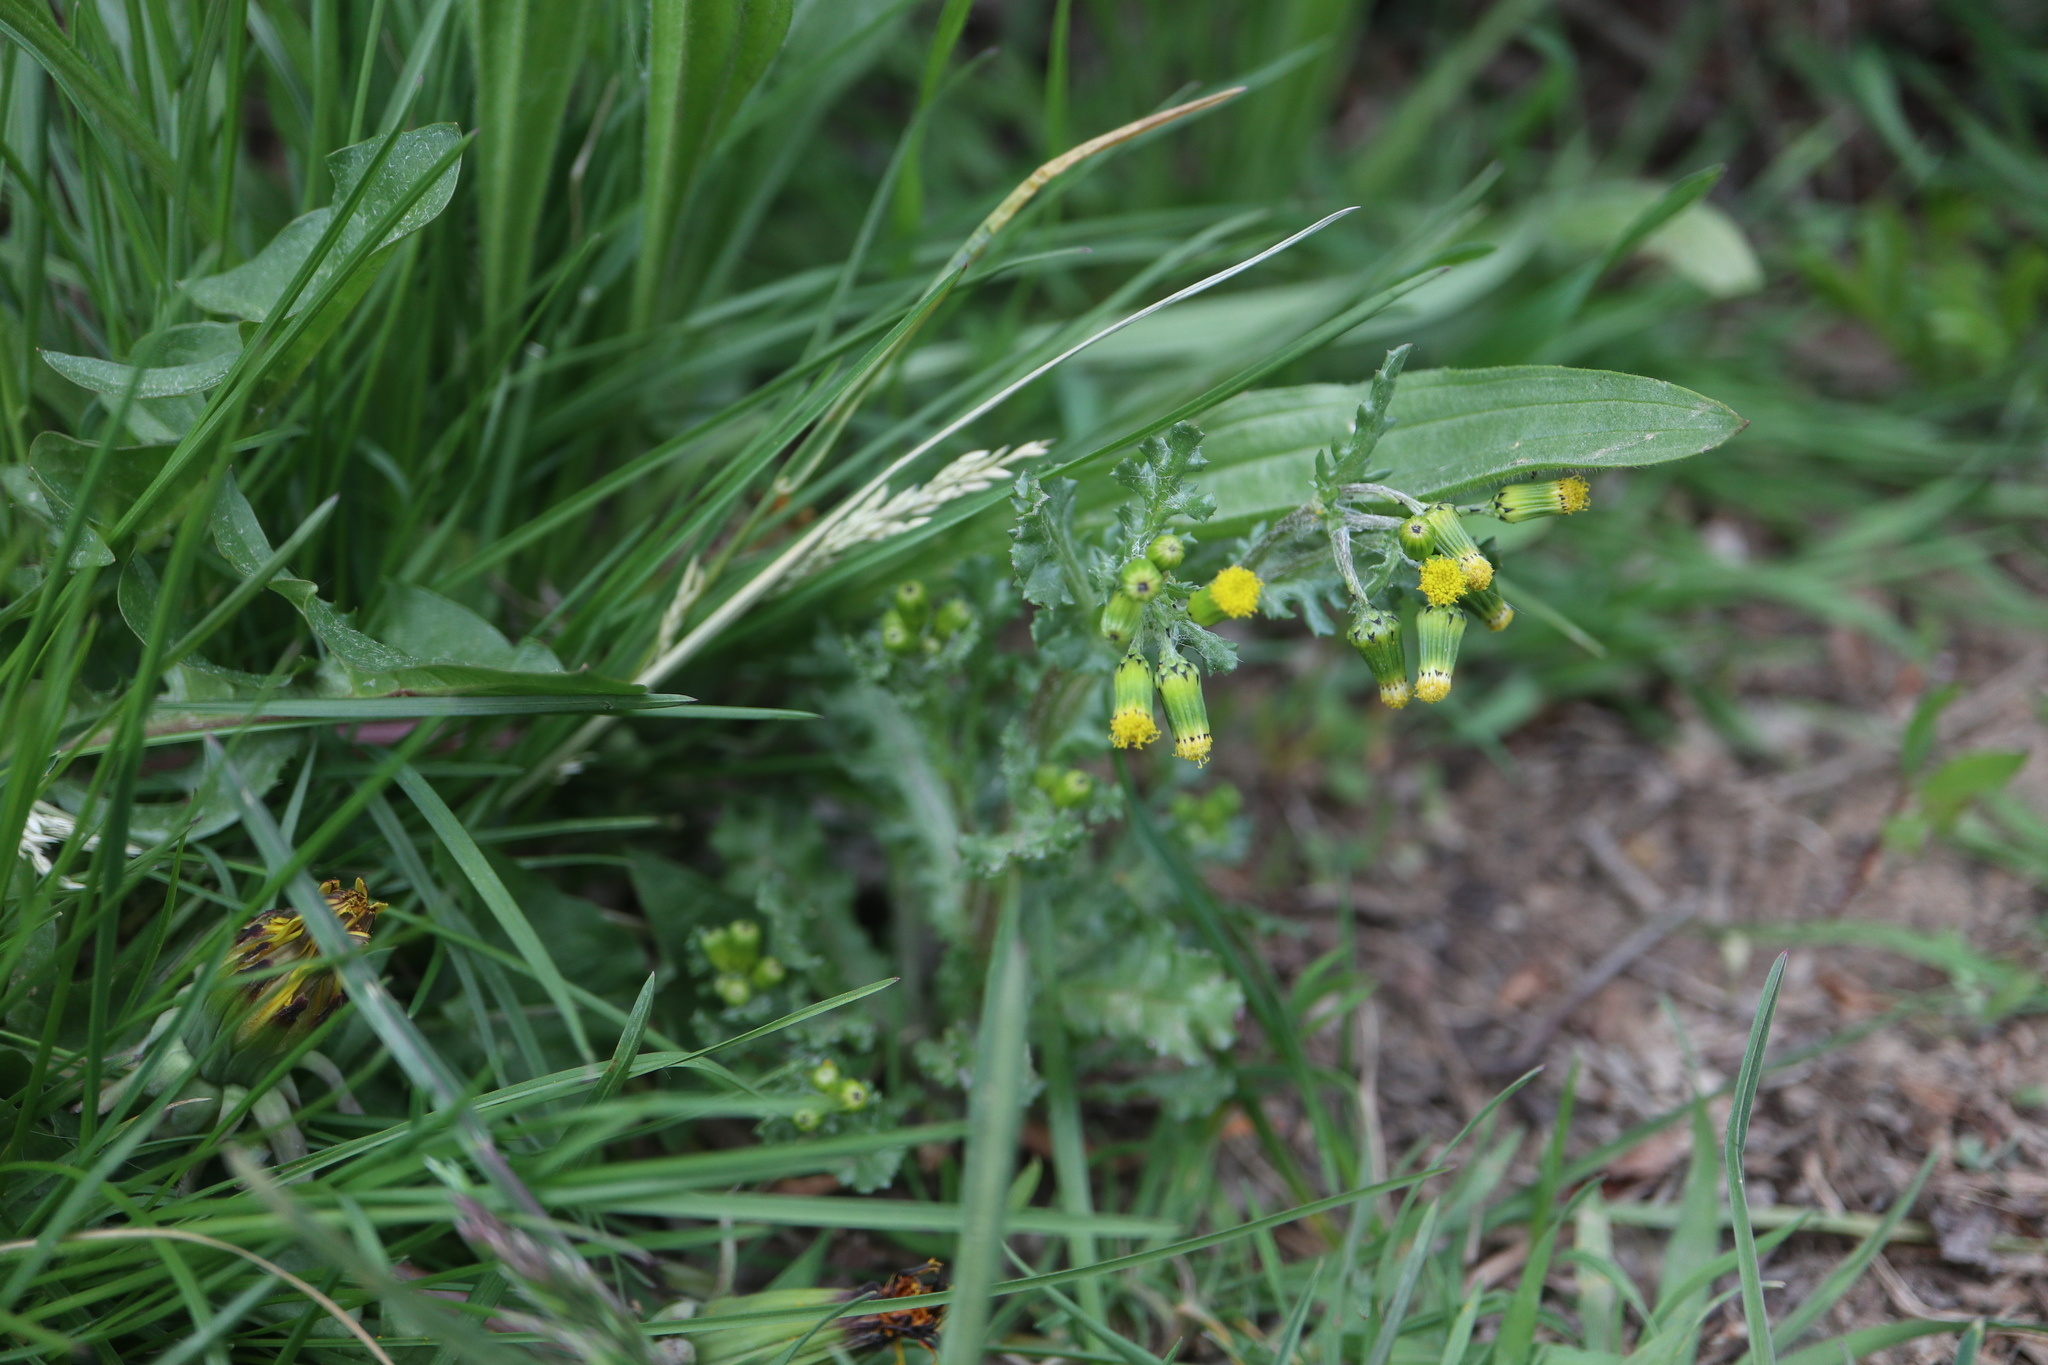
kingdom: Plantae
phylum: Tracheophyta
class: Magnoliopsida
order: Asterales
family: Asteraceae
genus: Senecio
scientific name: Senecio vulgaris
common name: Old-man-in-the-spring
